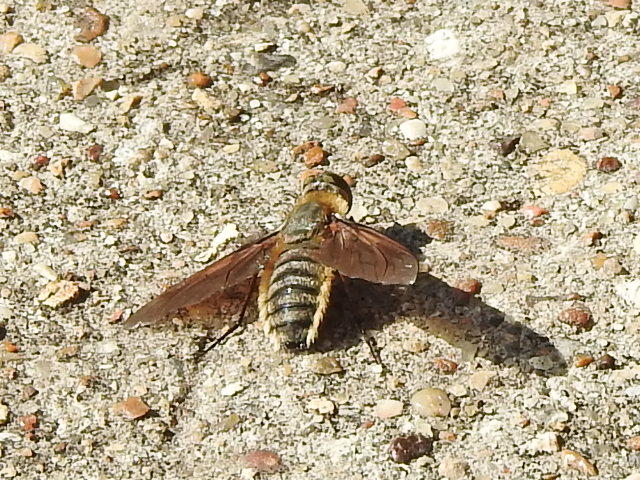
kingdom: Animalia
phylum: Arthropoda
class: Insecta
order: Diptera
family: Bombyliidae
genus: Poecilanthrax
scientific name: Poecilanthrax lucifer
